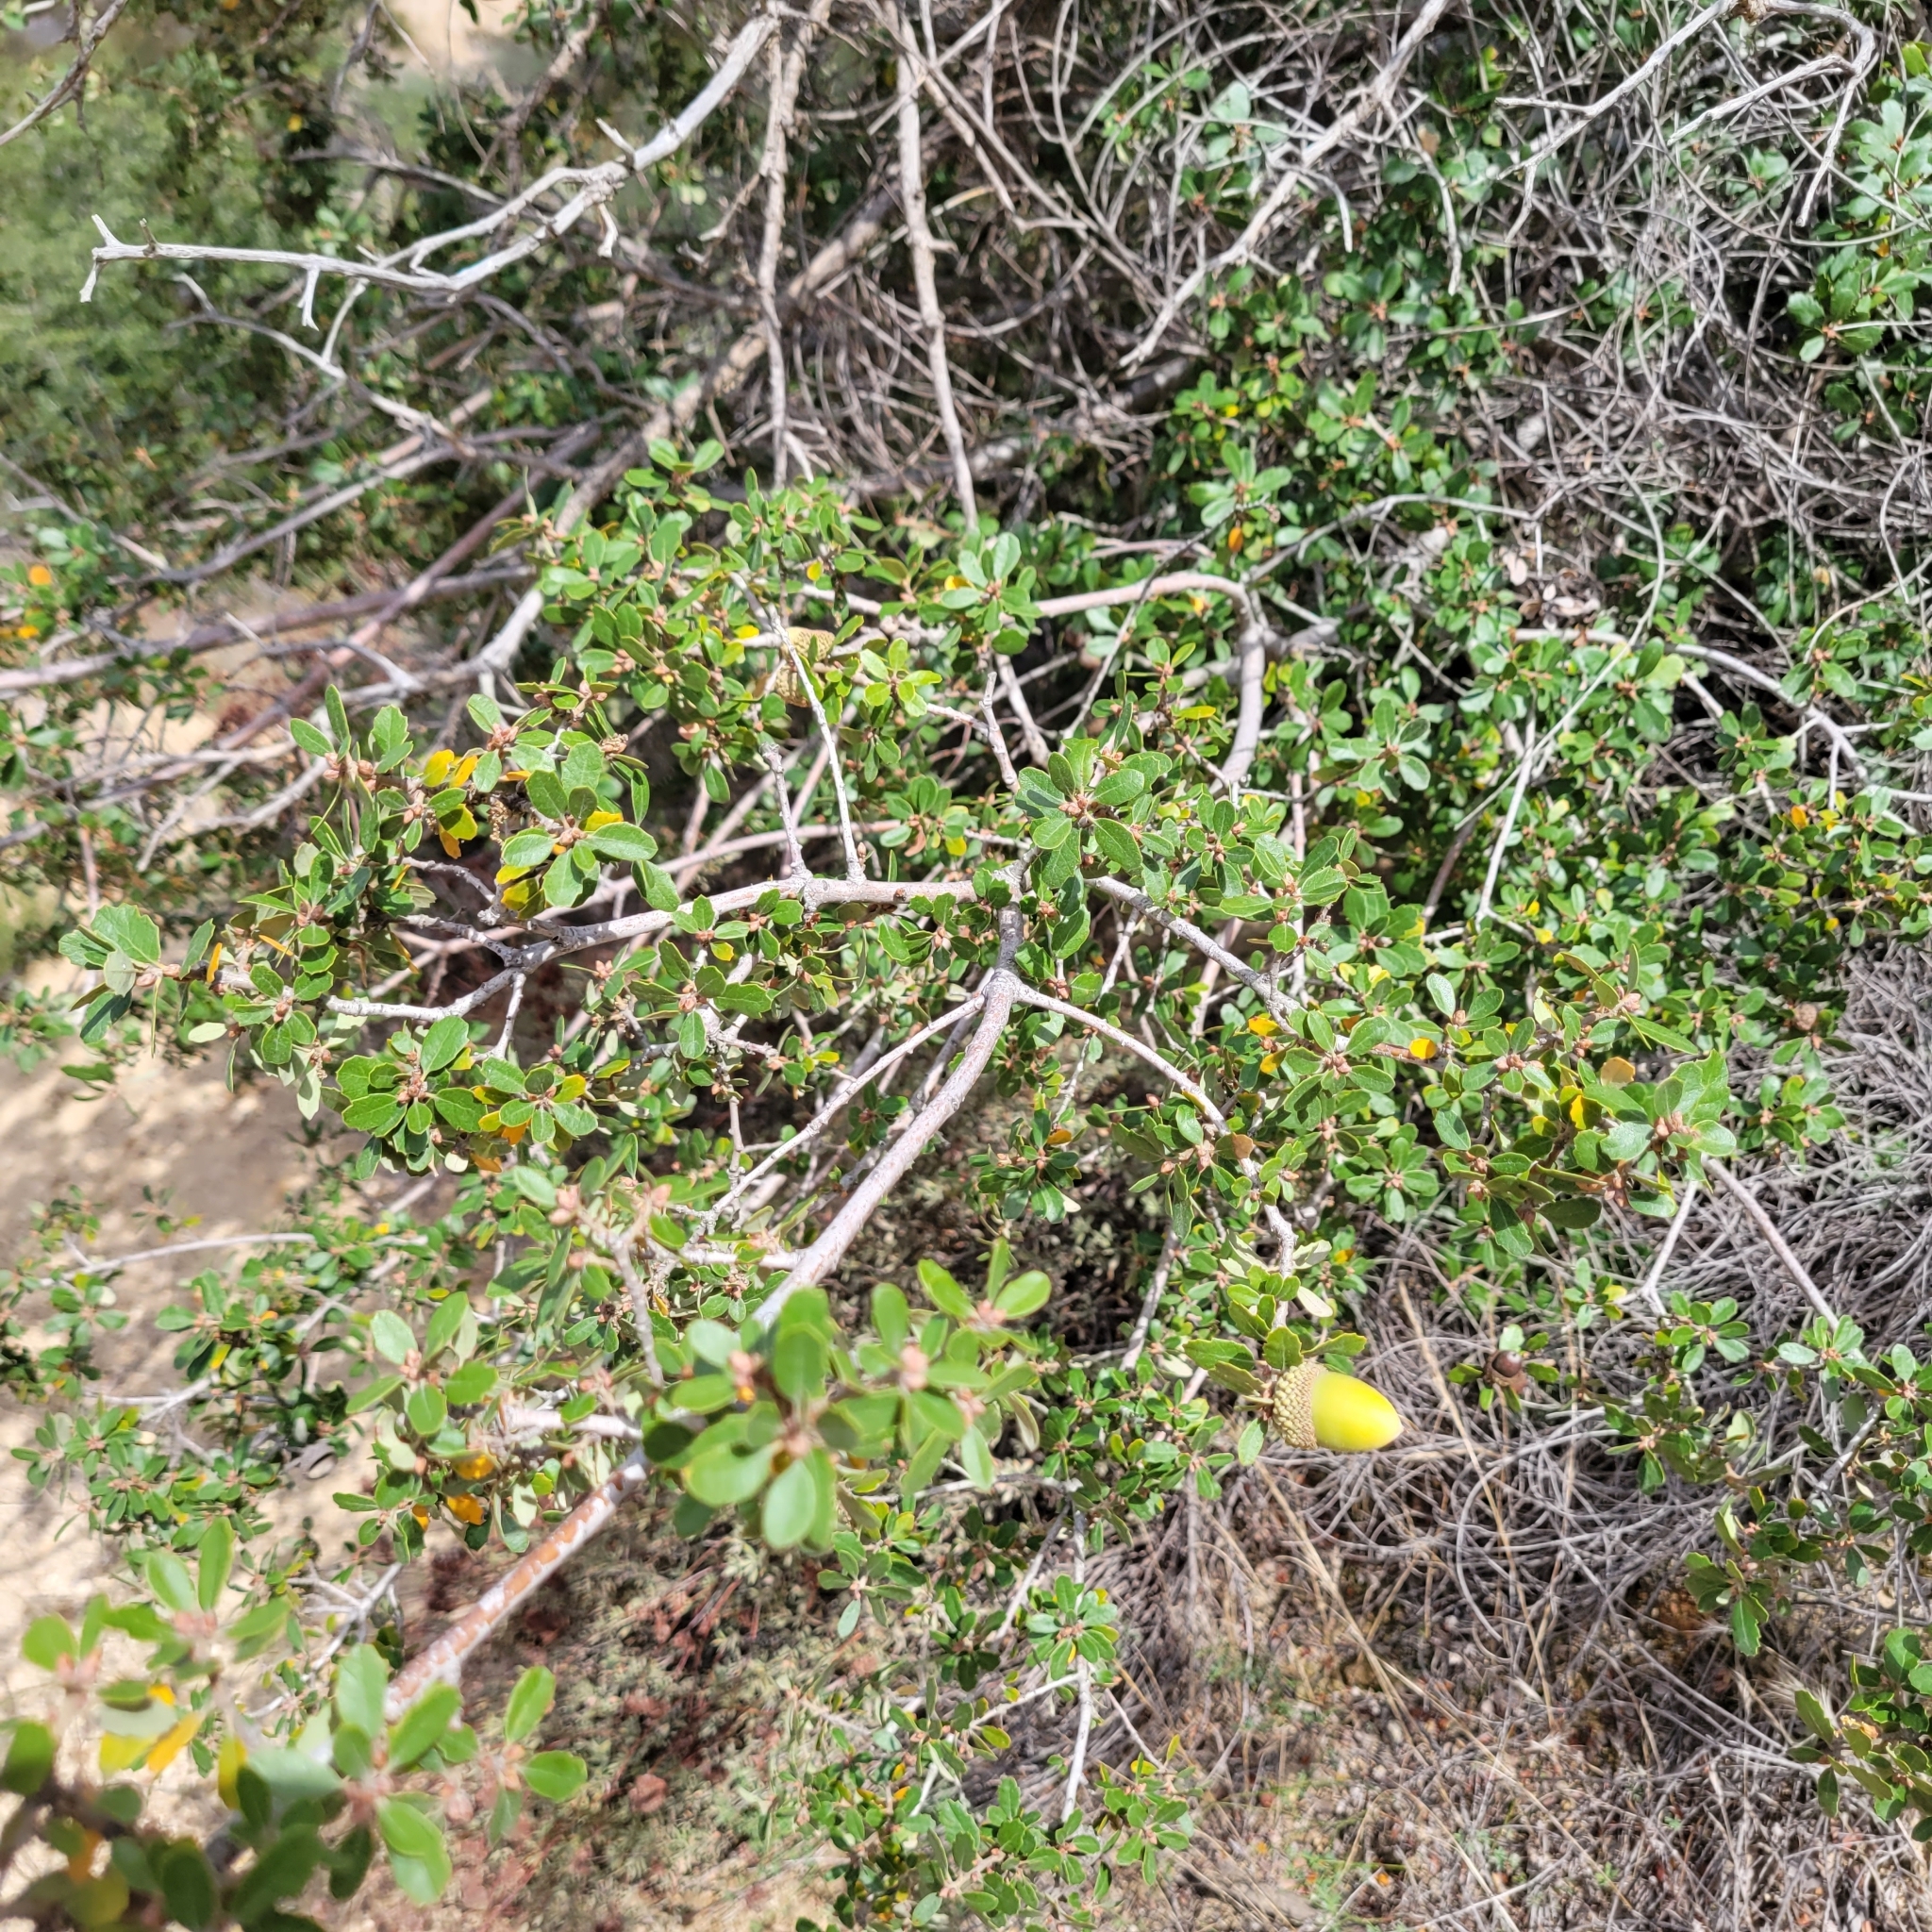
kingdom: Plantae
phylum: Tracheophyta
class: Magnoliopsida
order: Fagales
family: Fagaceae
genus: Quercus
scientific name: Quercus berberidifolia
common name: California scrub oak
